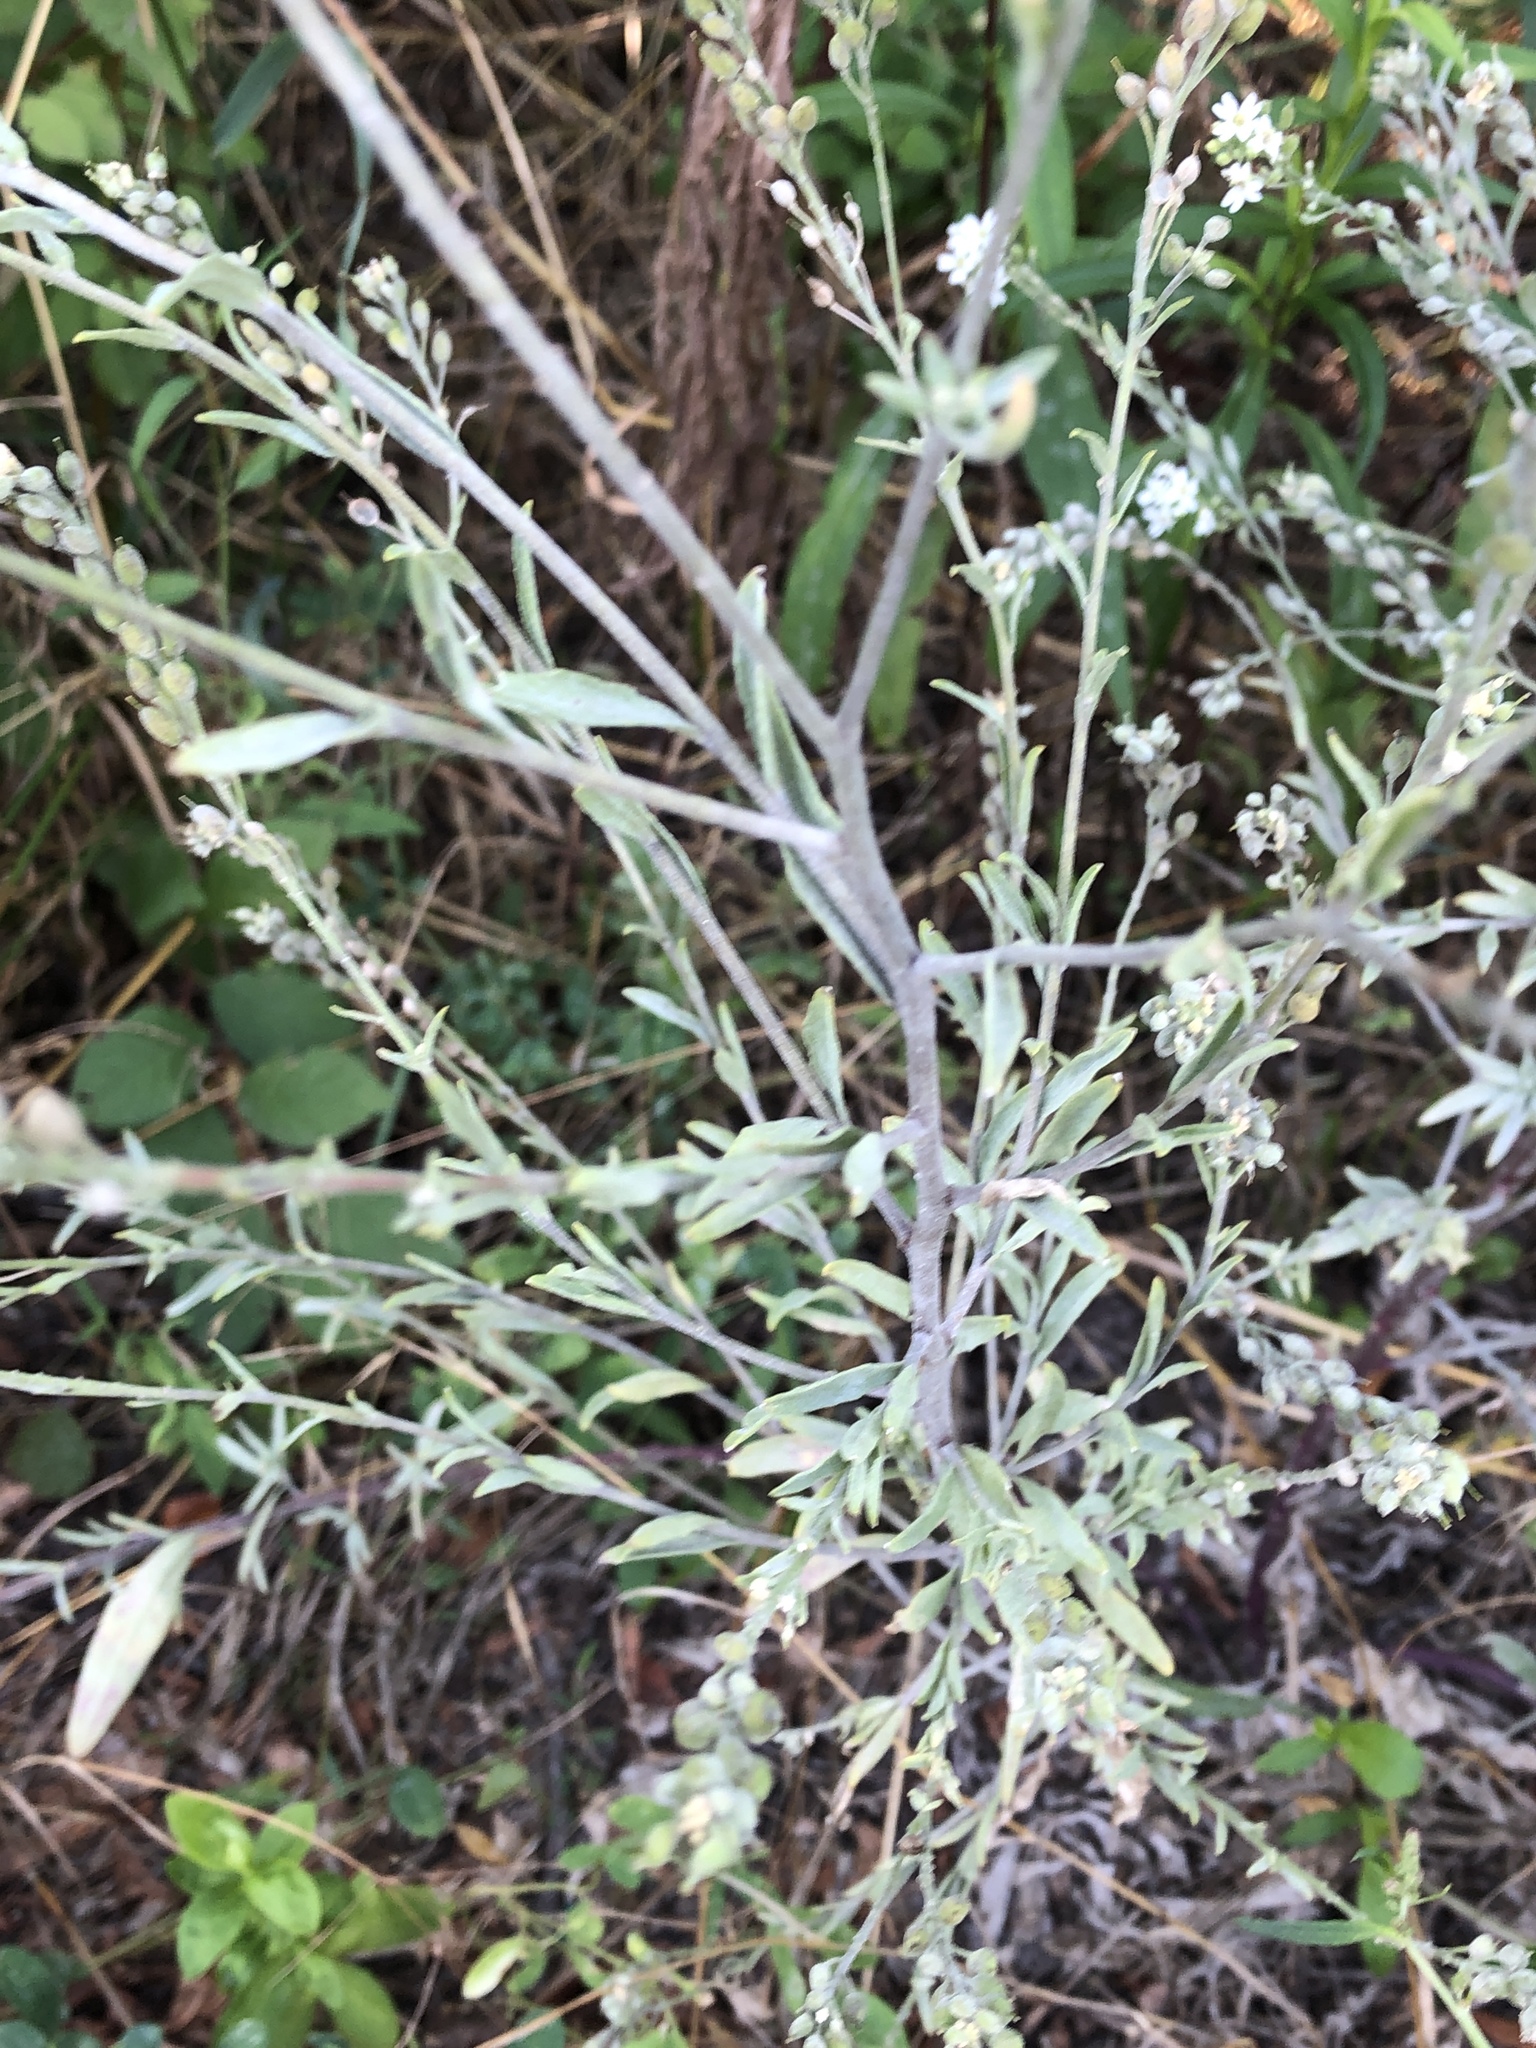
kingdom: Plantae
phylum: Tracheophyta
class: Magnoliopsida
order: Brassicales
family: Brassicaceae
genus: Berteroa
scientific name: Berteroa incana
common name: Hoary alison
